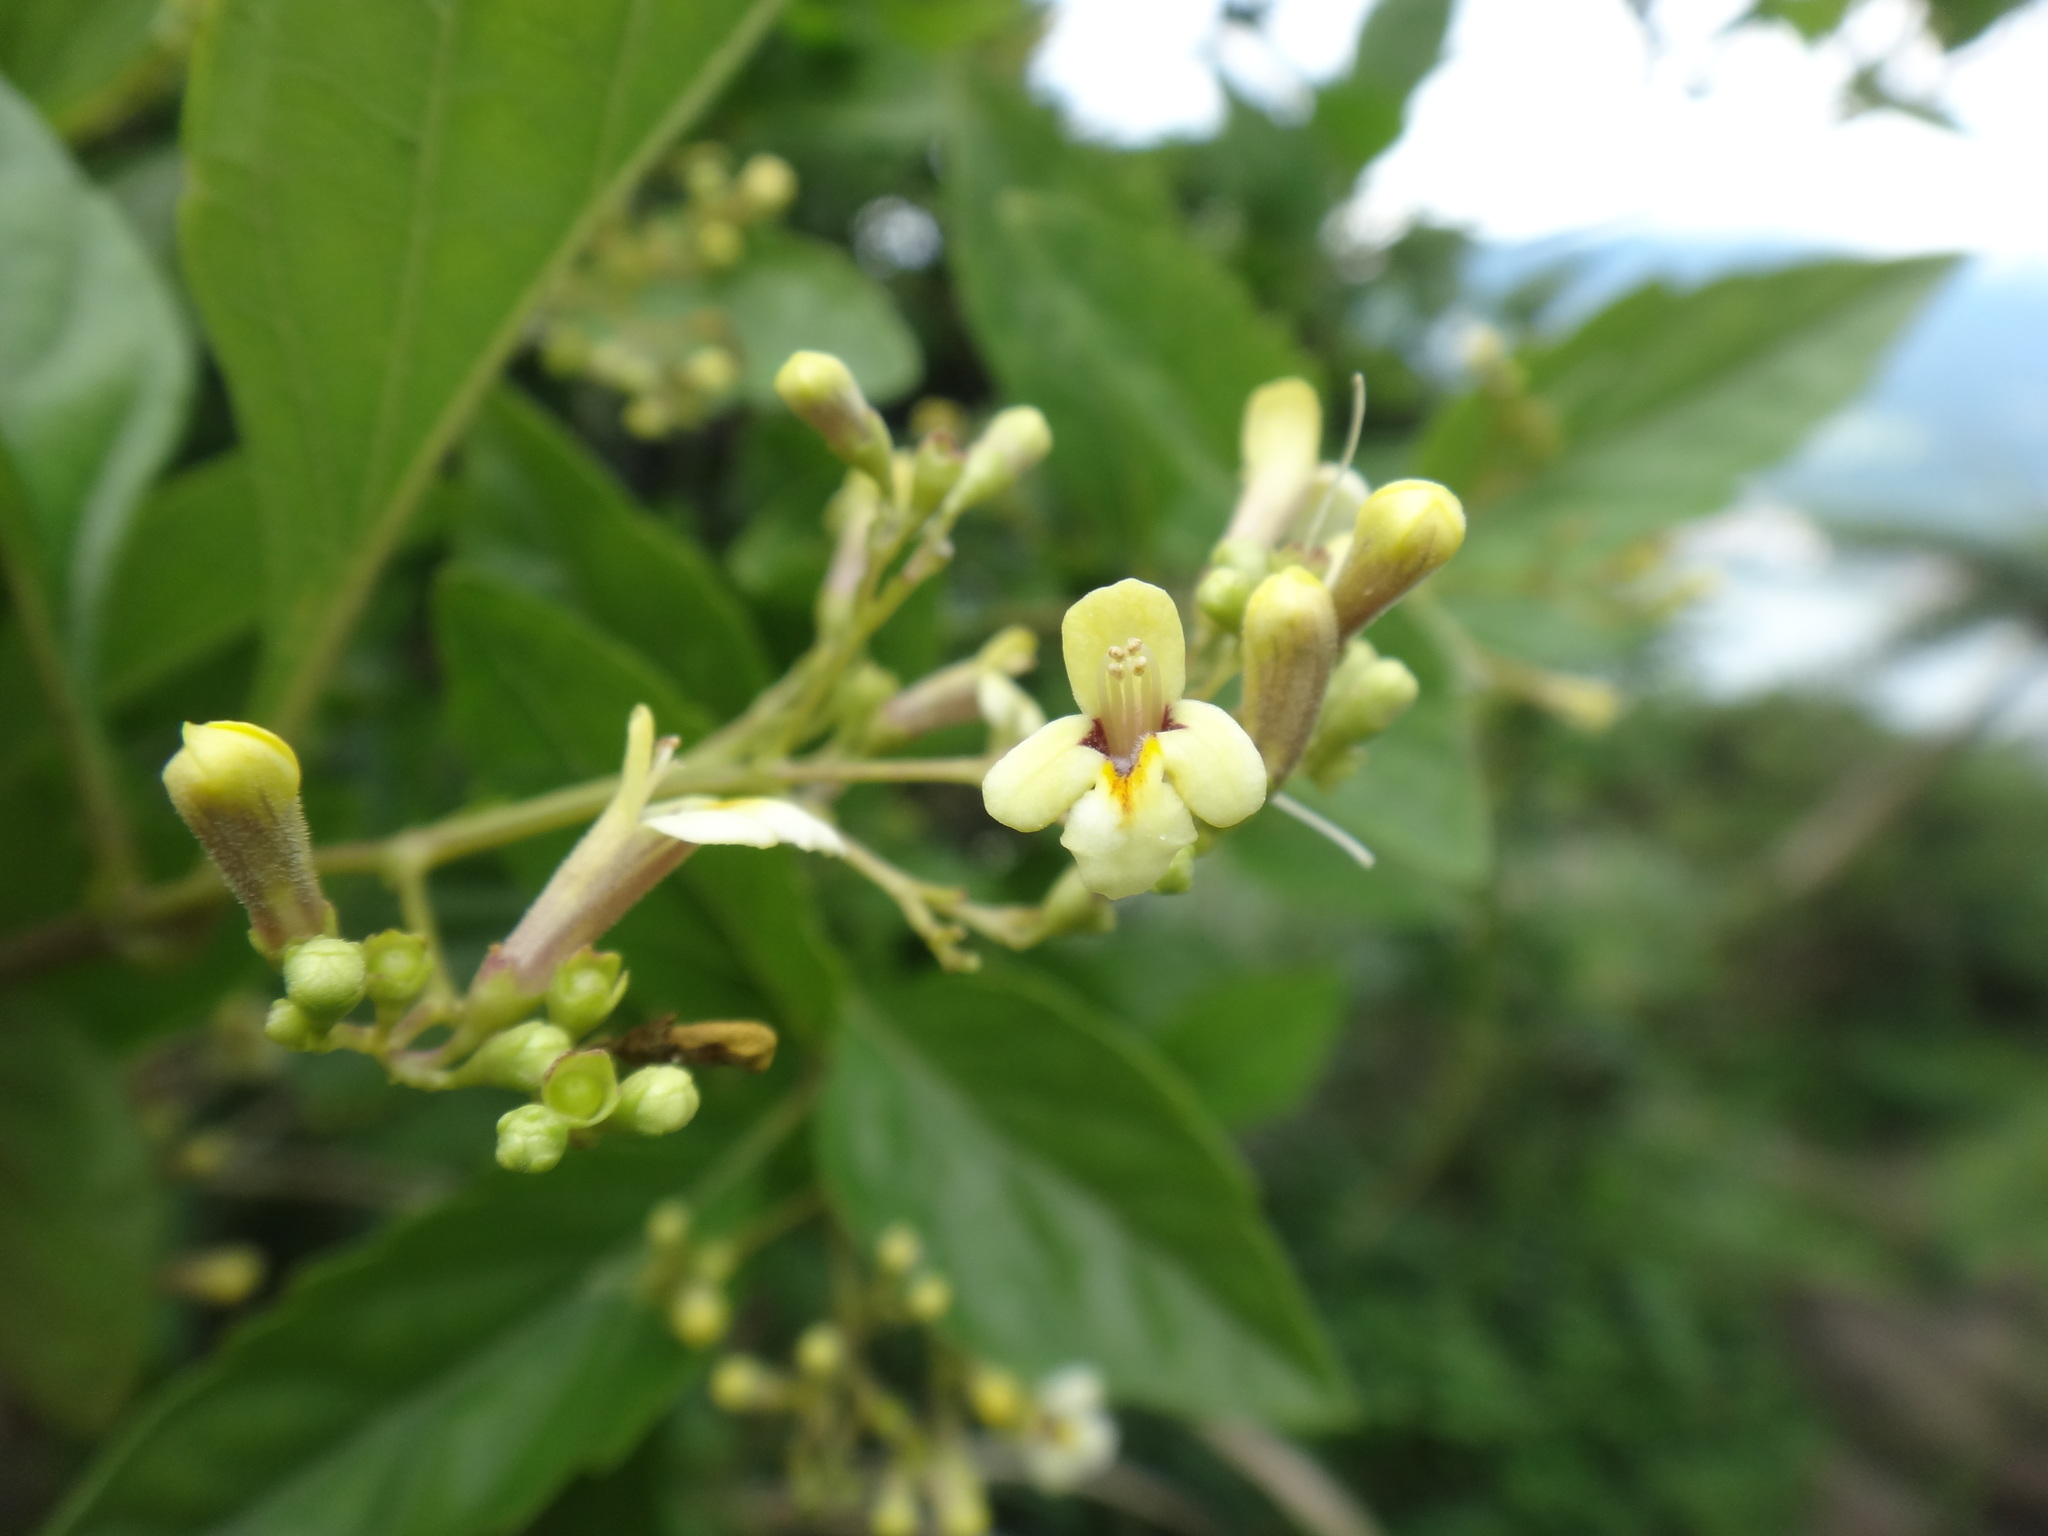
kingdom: Plantae
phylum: Tracheophyta
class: Magnoliopsida
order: Lamiales
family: Lamiaceae
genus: Premna
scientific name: Premna microphylla
